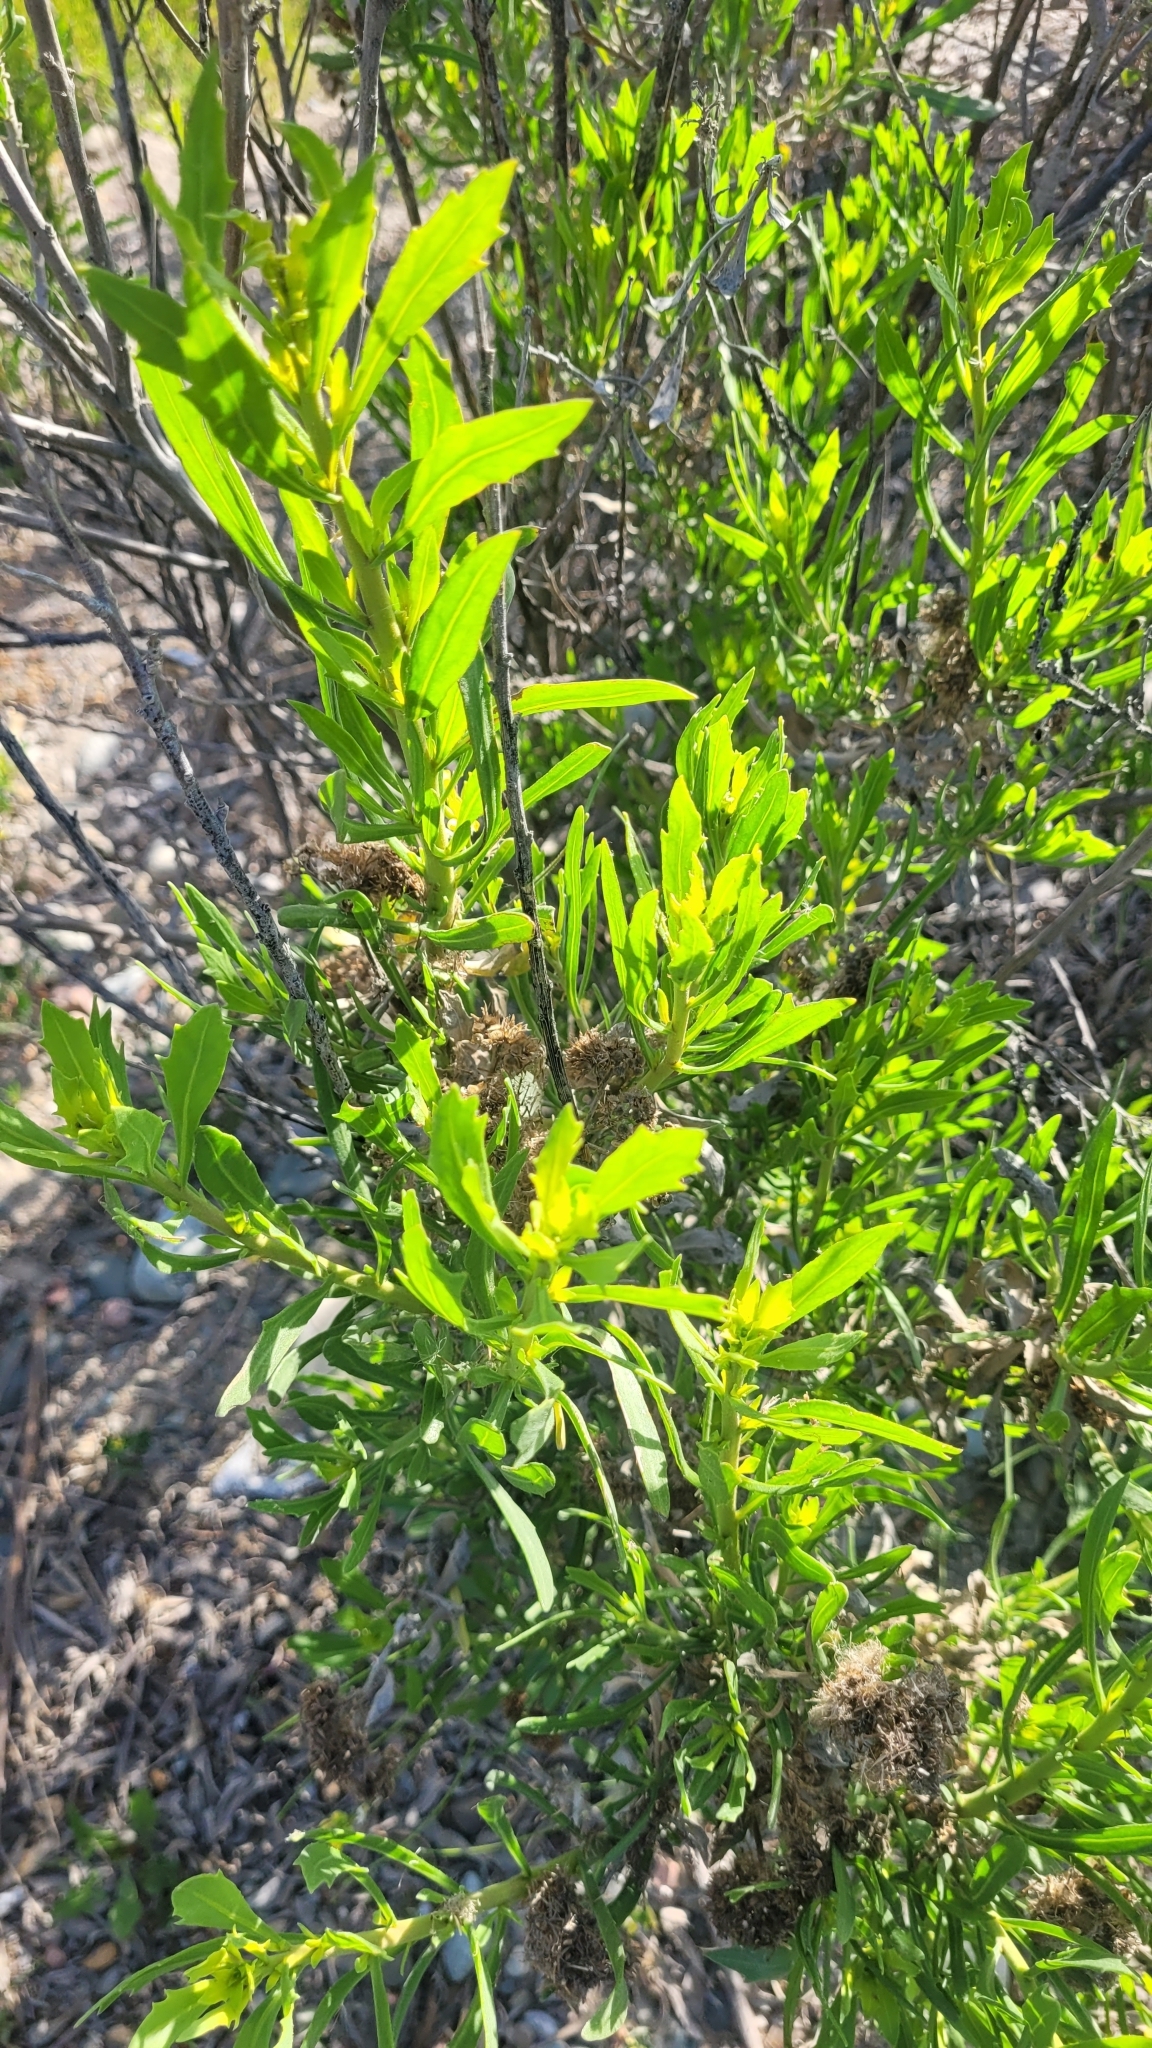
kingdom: Plantae
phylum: Tracheophyta
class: Magnoliopsida
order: Asterales
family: Asteraceae
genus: Tessaria
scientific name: Tessaria absinthioides
